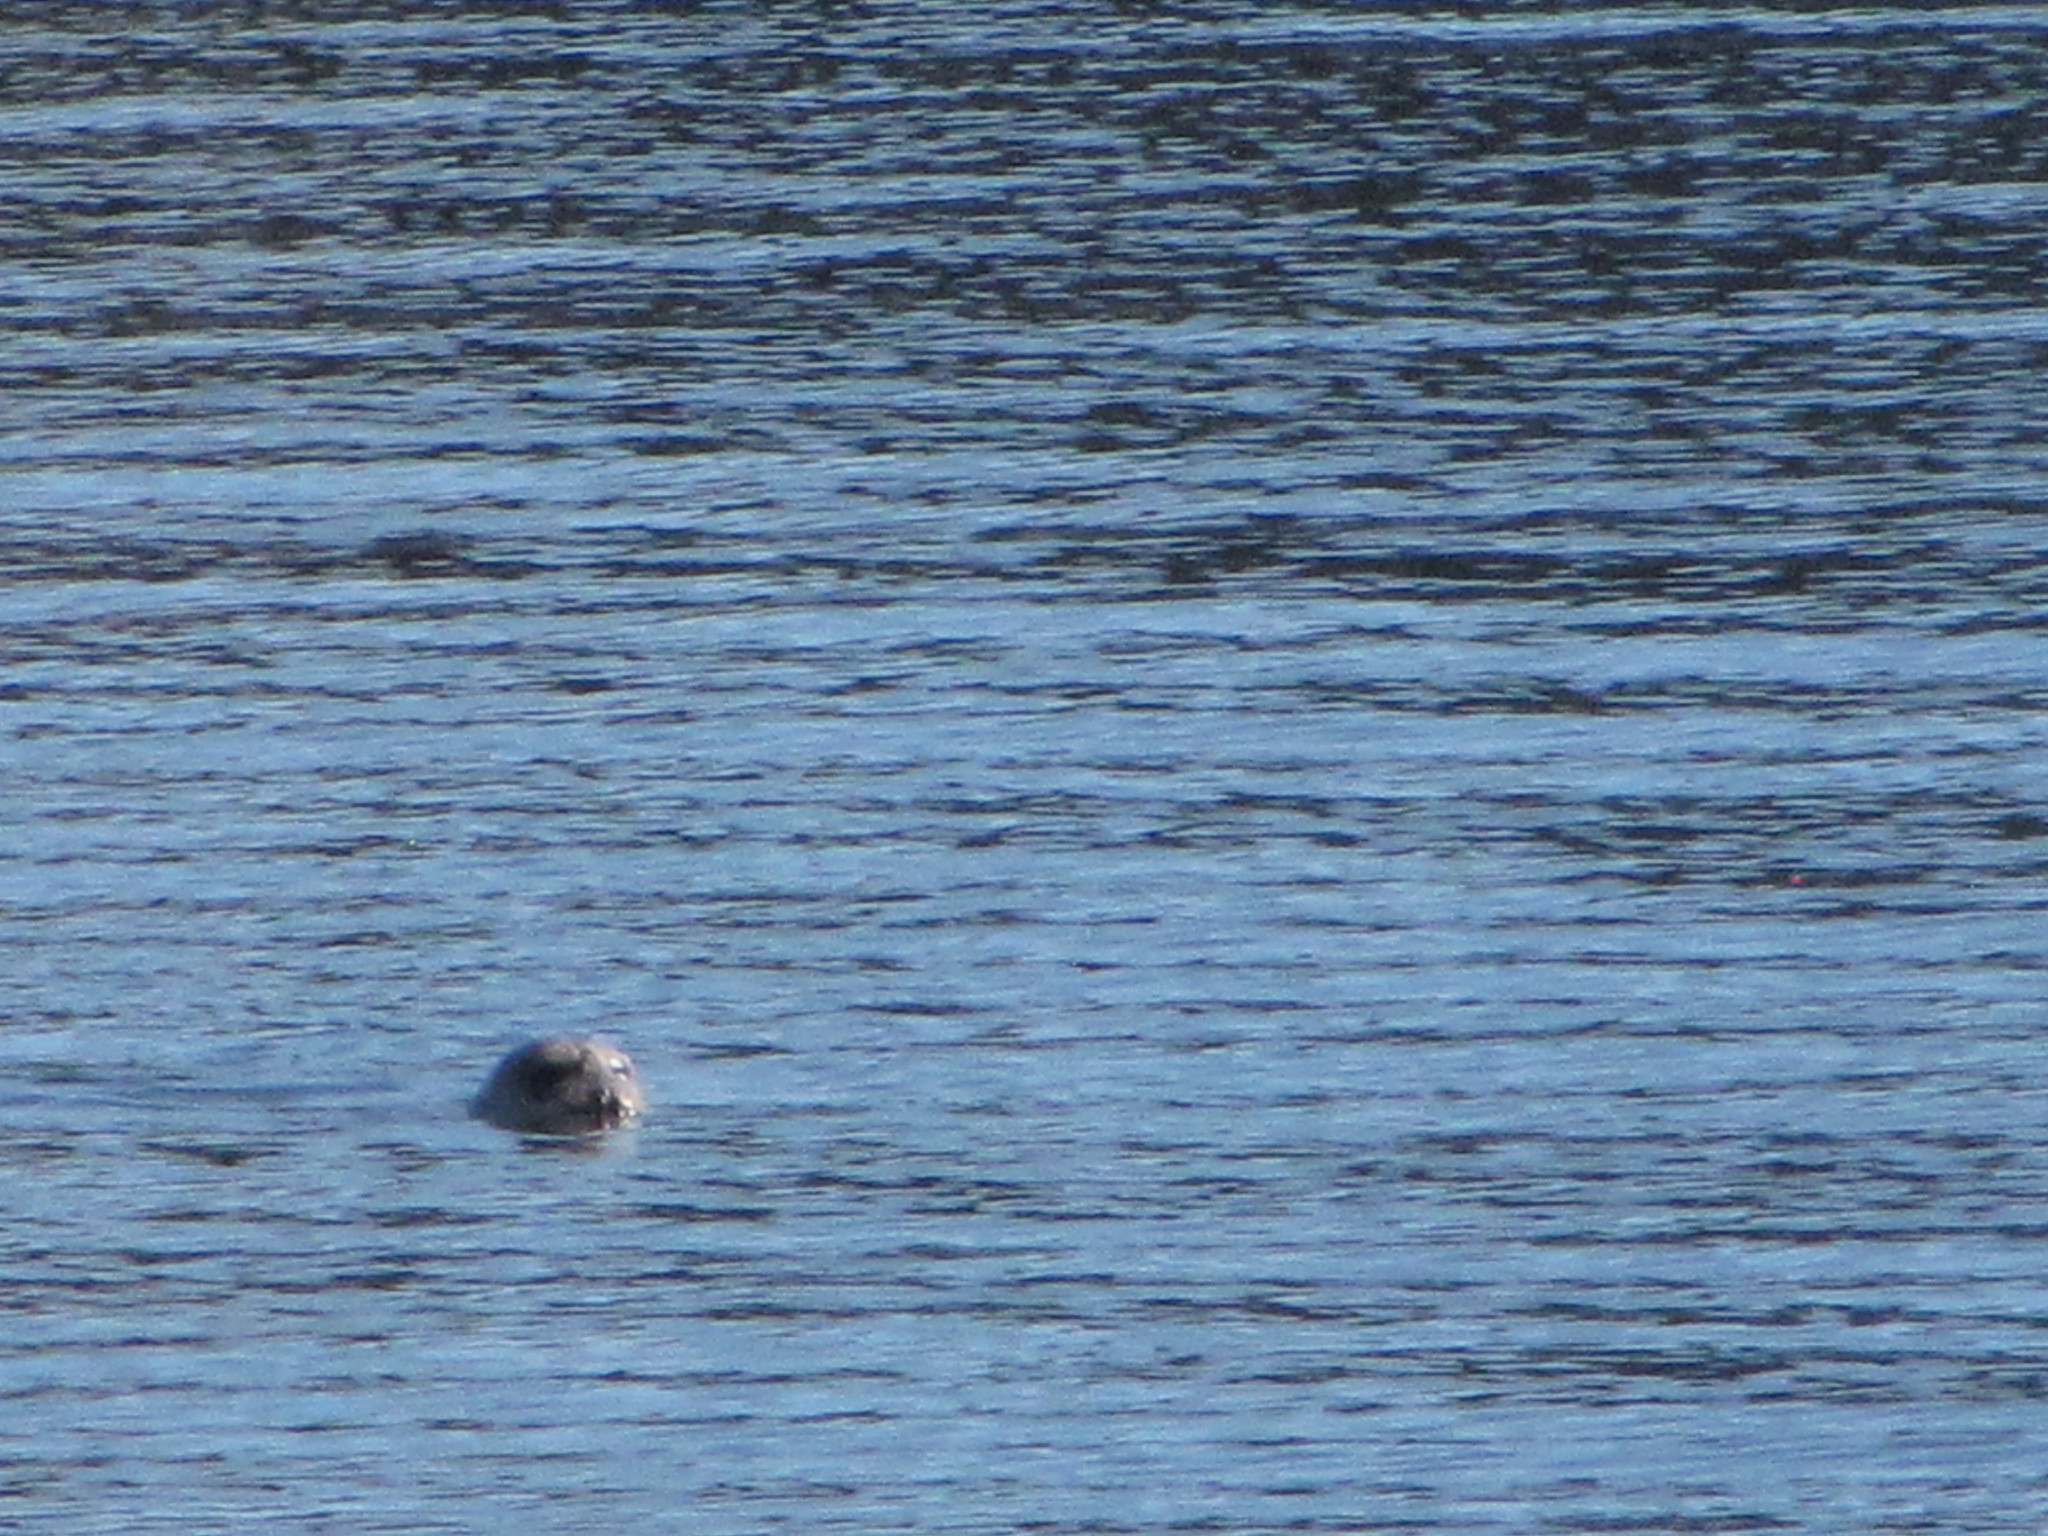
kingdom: Animalia
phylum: Chordata
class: Mammalia
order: Carnivora
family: Phocidae
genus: Phoca
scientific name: Phoca vitulina
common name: Harbor seal
